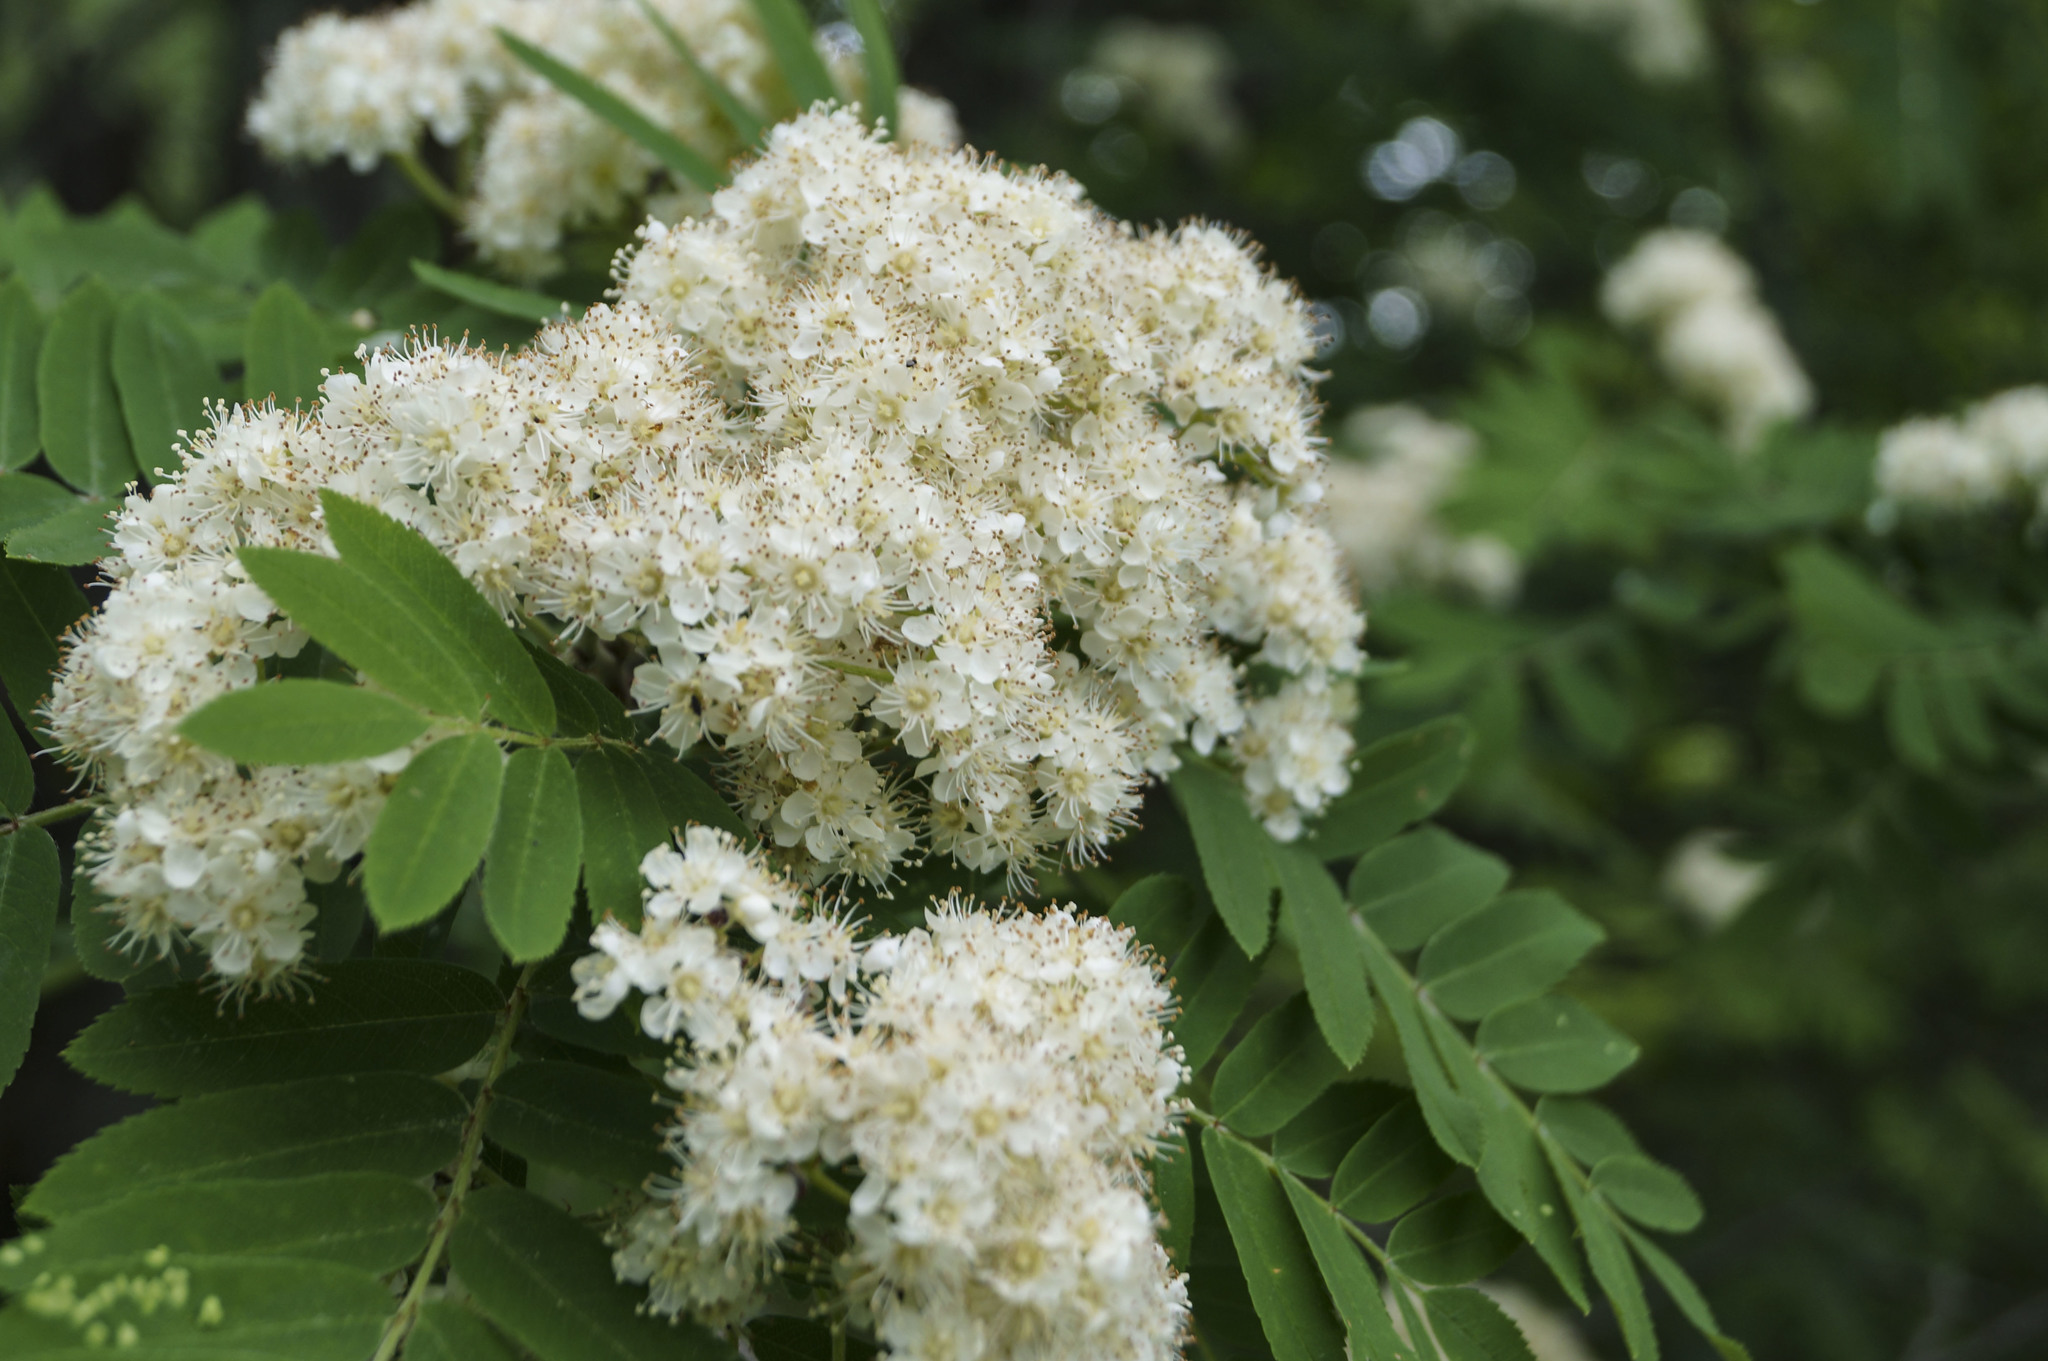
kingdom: Plantae
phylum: Tracheophyta
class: Magnoliopsida
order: Rosales
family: Rosaceae
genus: Sorbus
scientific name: Sorbus aucuparia
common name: Rowan
